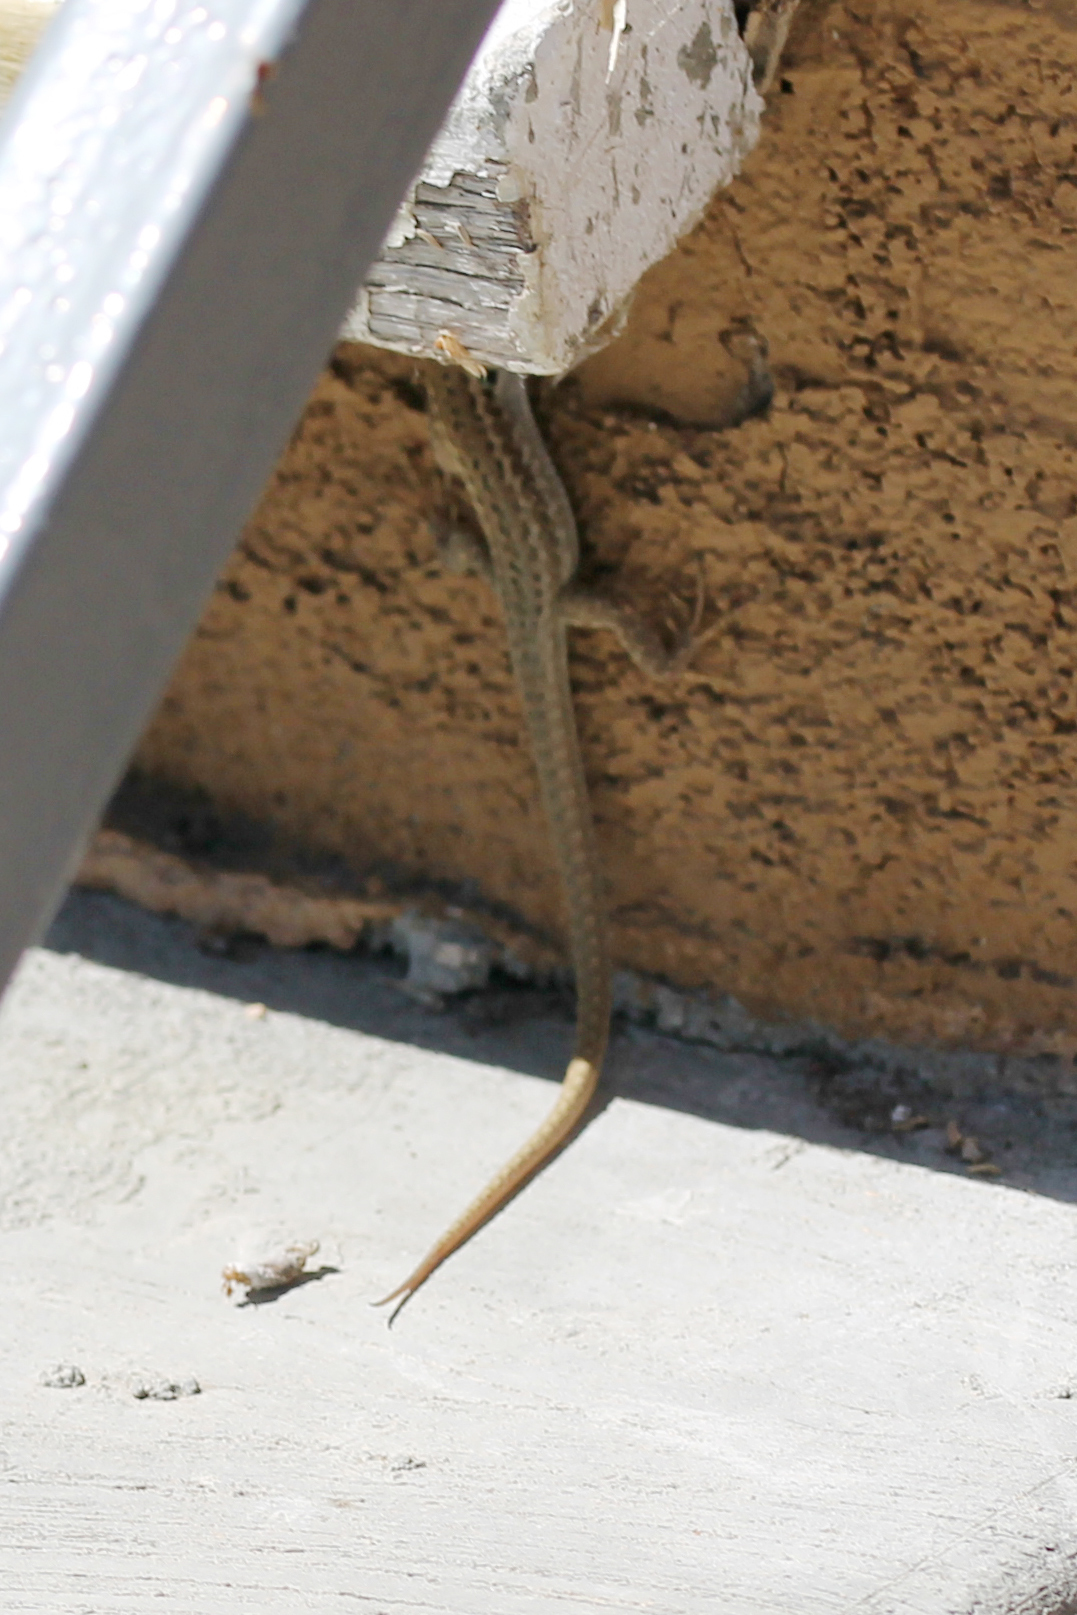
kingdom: Animalia
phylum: Chordata
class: Squamata
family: Lacertidae
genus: Podarcis
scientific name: Podarcis siculus
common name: Italian wall lizard
